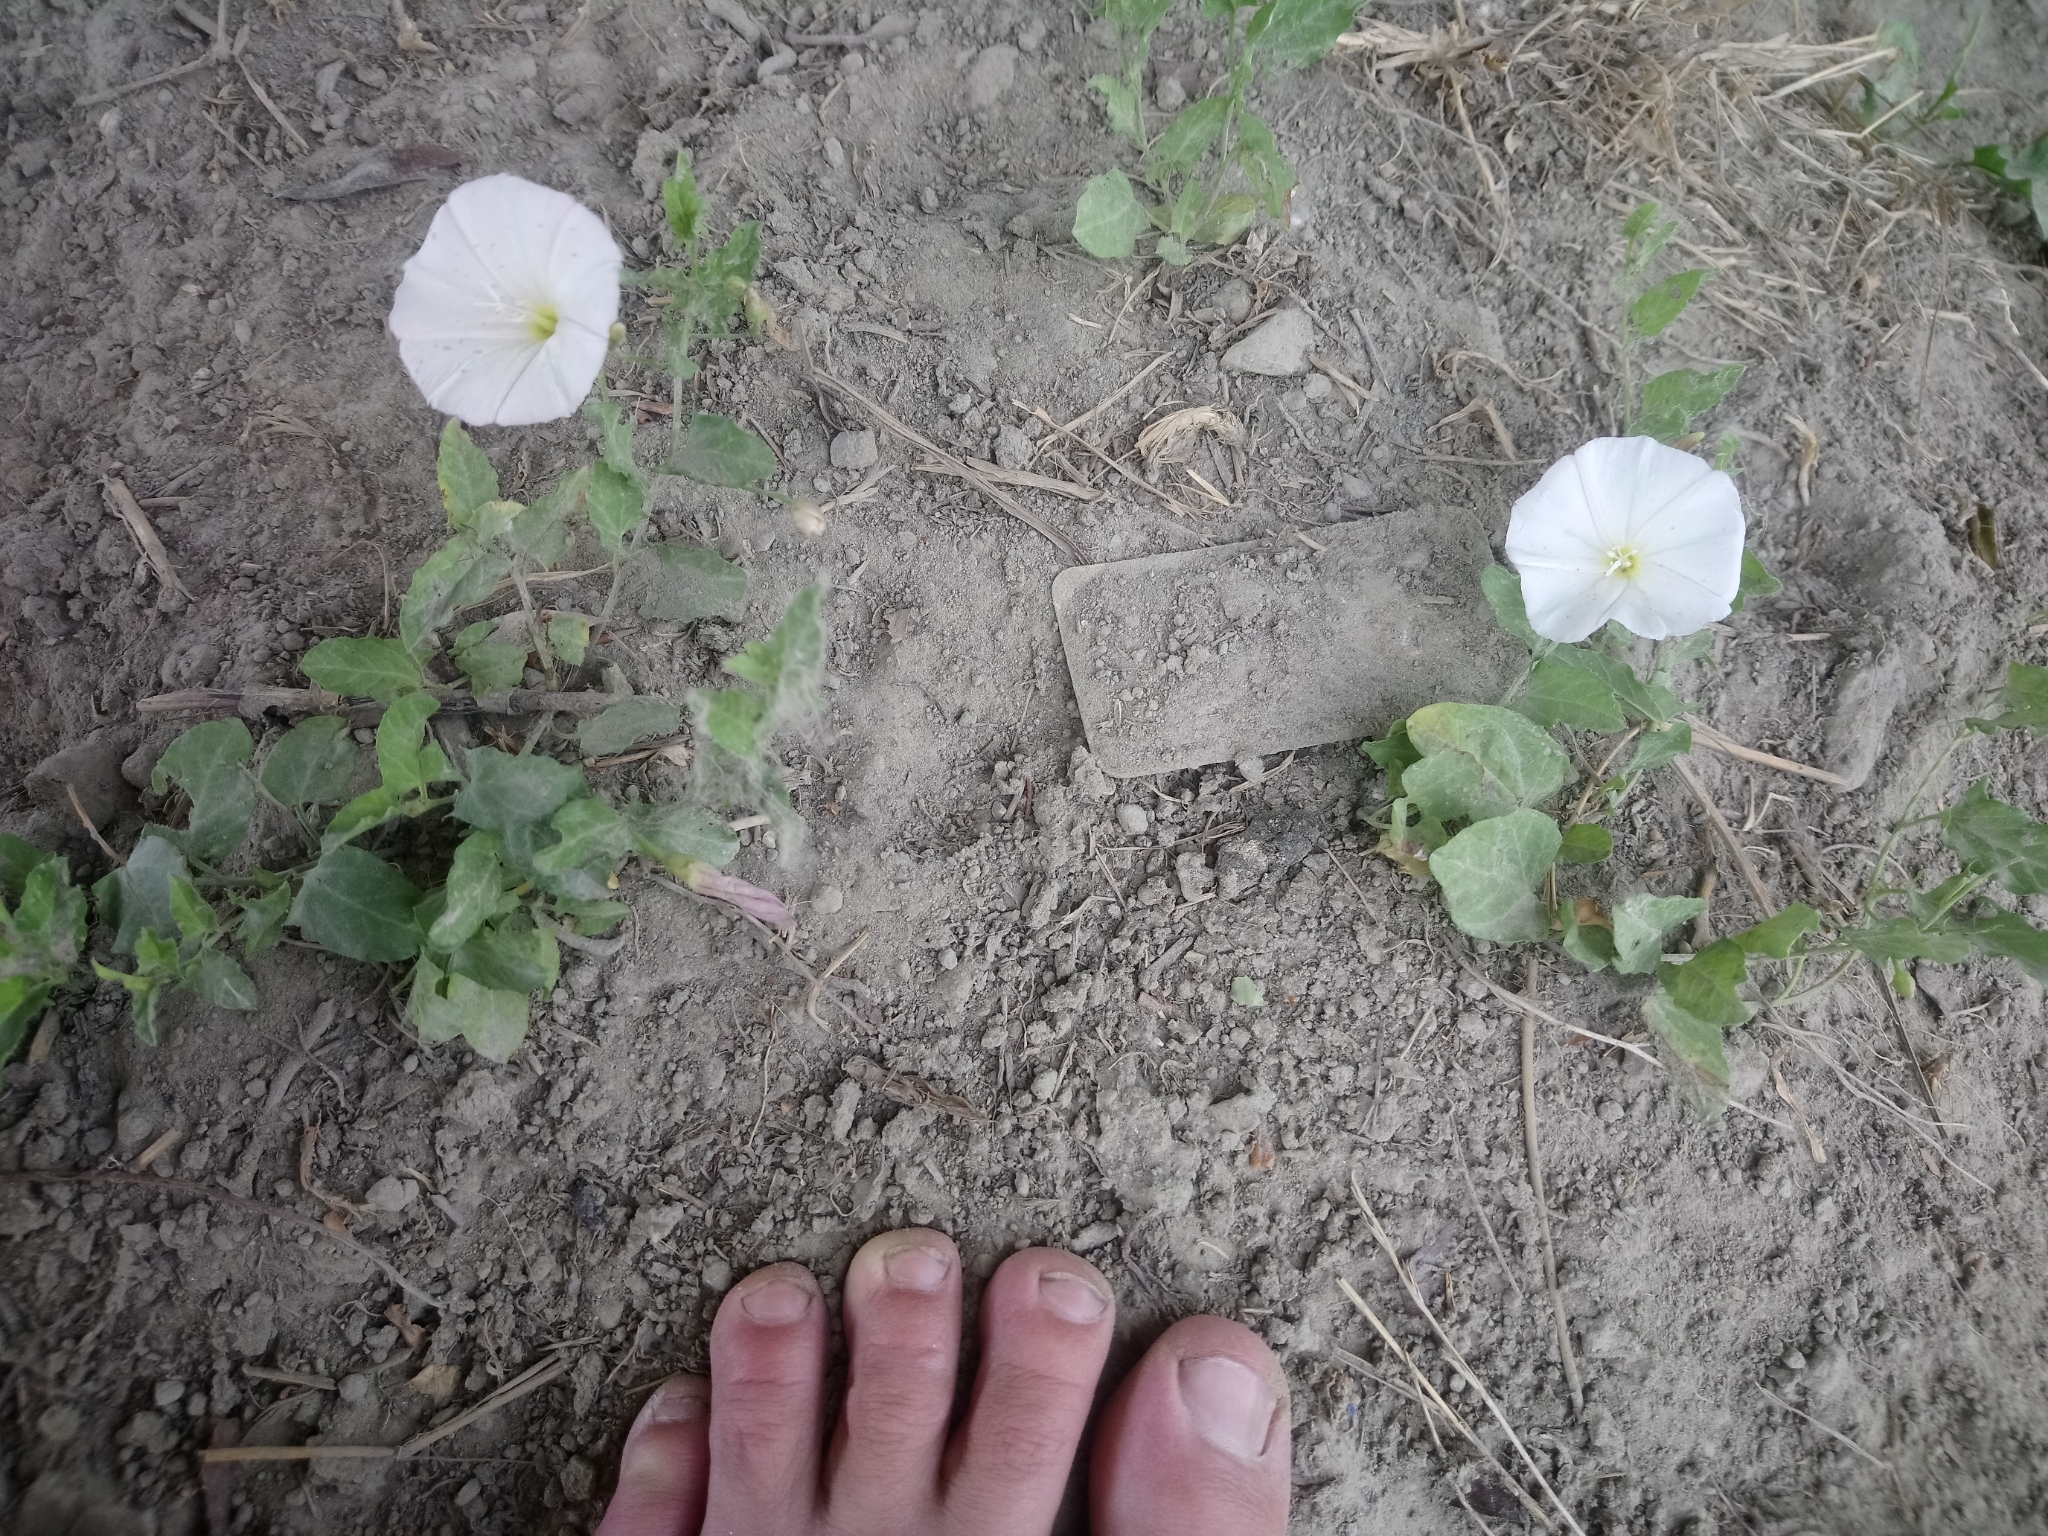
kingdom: Plantae
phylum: Tracheophyta
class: Magnoliopsida
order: Solanales
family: Convolvulaceae
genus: Convolvulus
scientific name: Convolvulus arvensis
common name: Field bindweed
